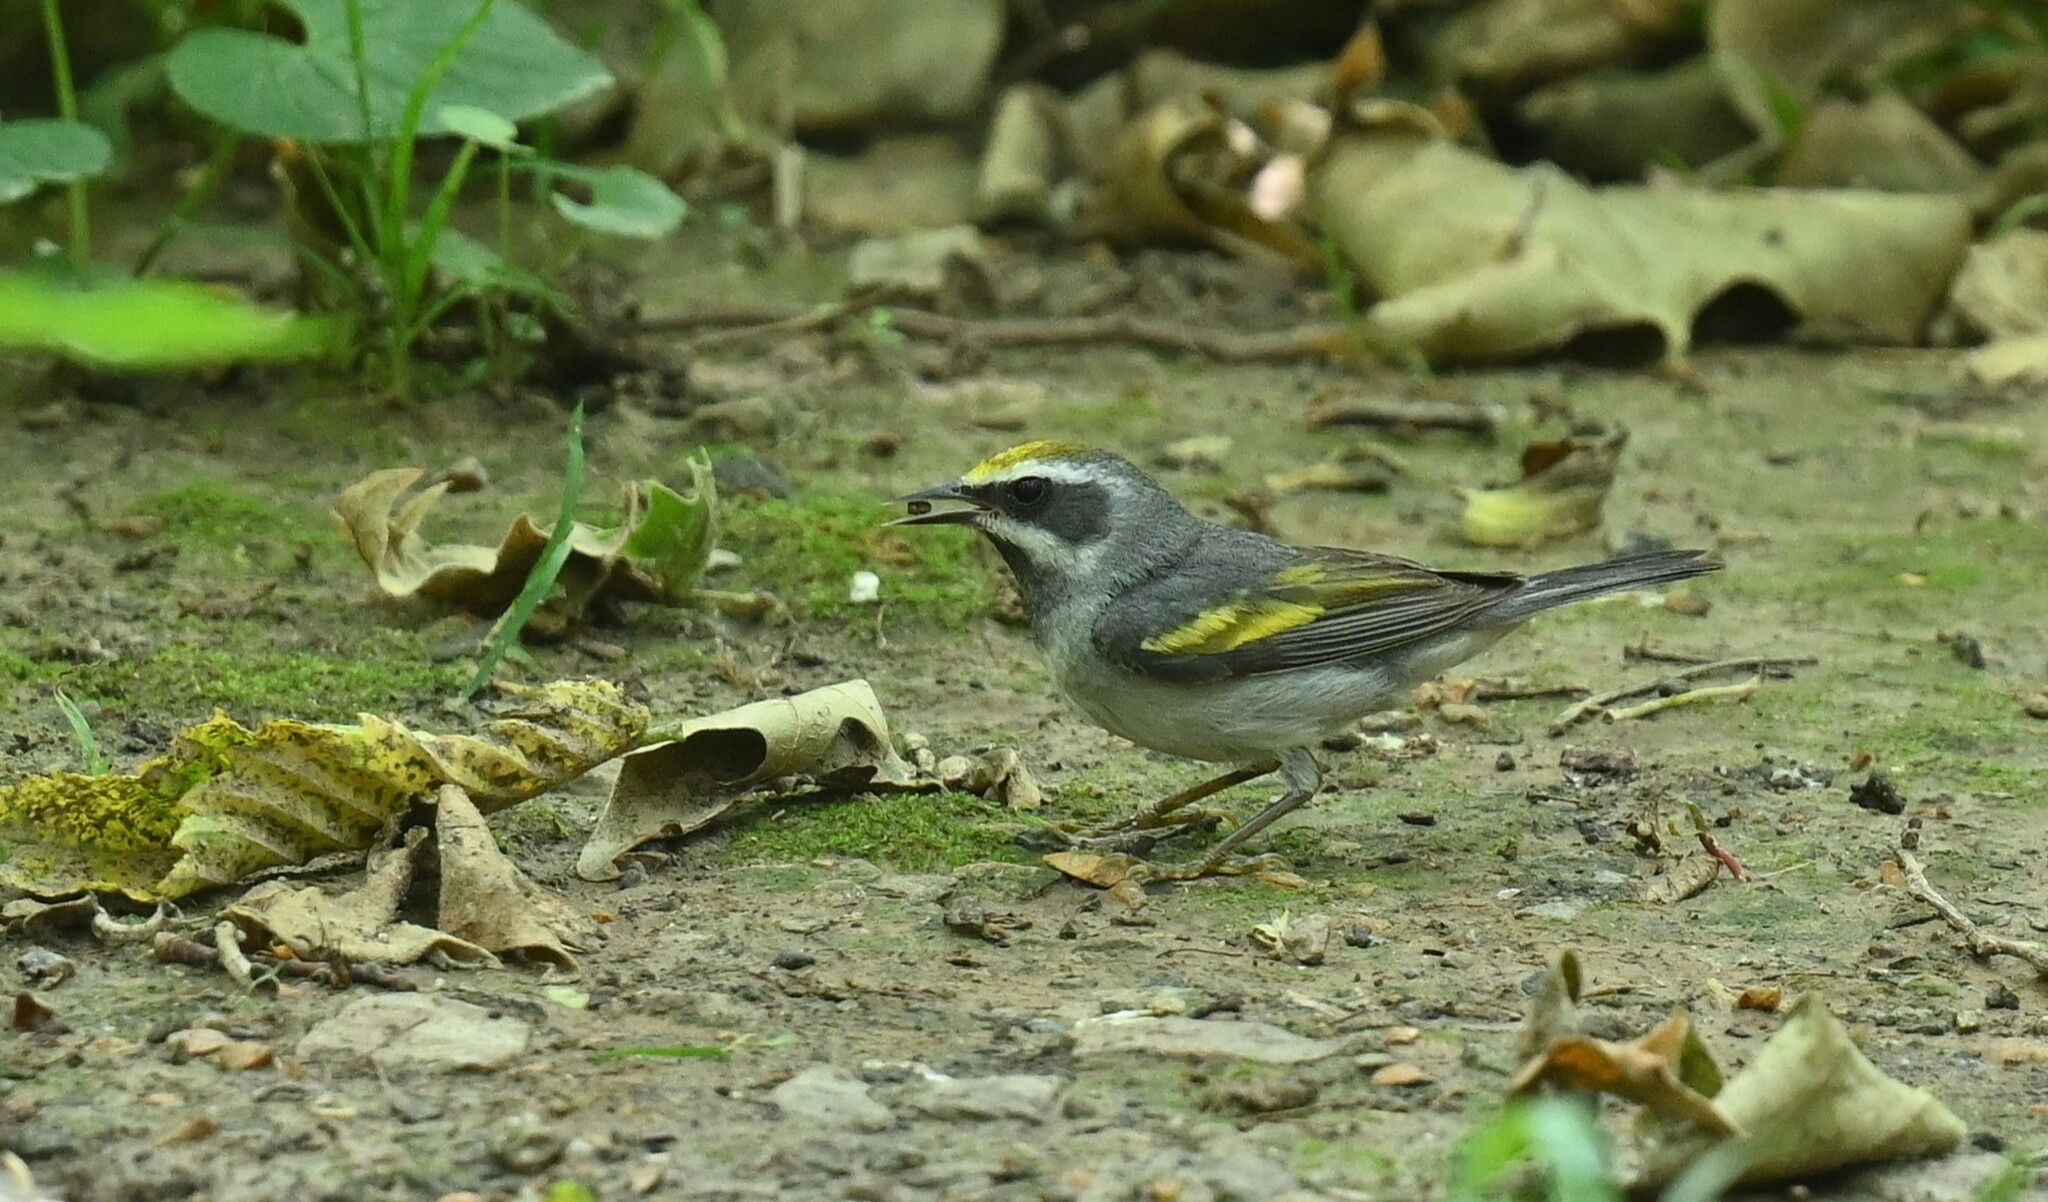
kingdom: Animalia
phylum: Chordata
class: Aves
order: Passeriformes
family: Parulidae
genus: Vermivora
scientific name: Vermivora chrysoptera
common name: Golden-winged warbler
